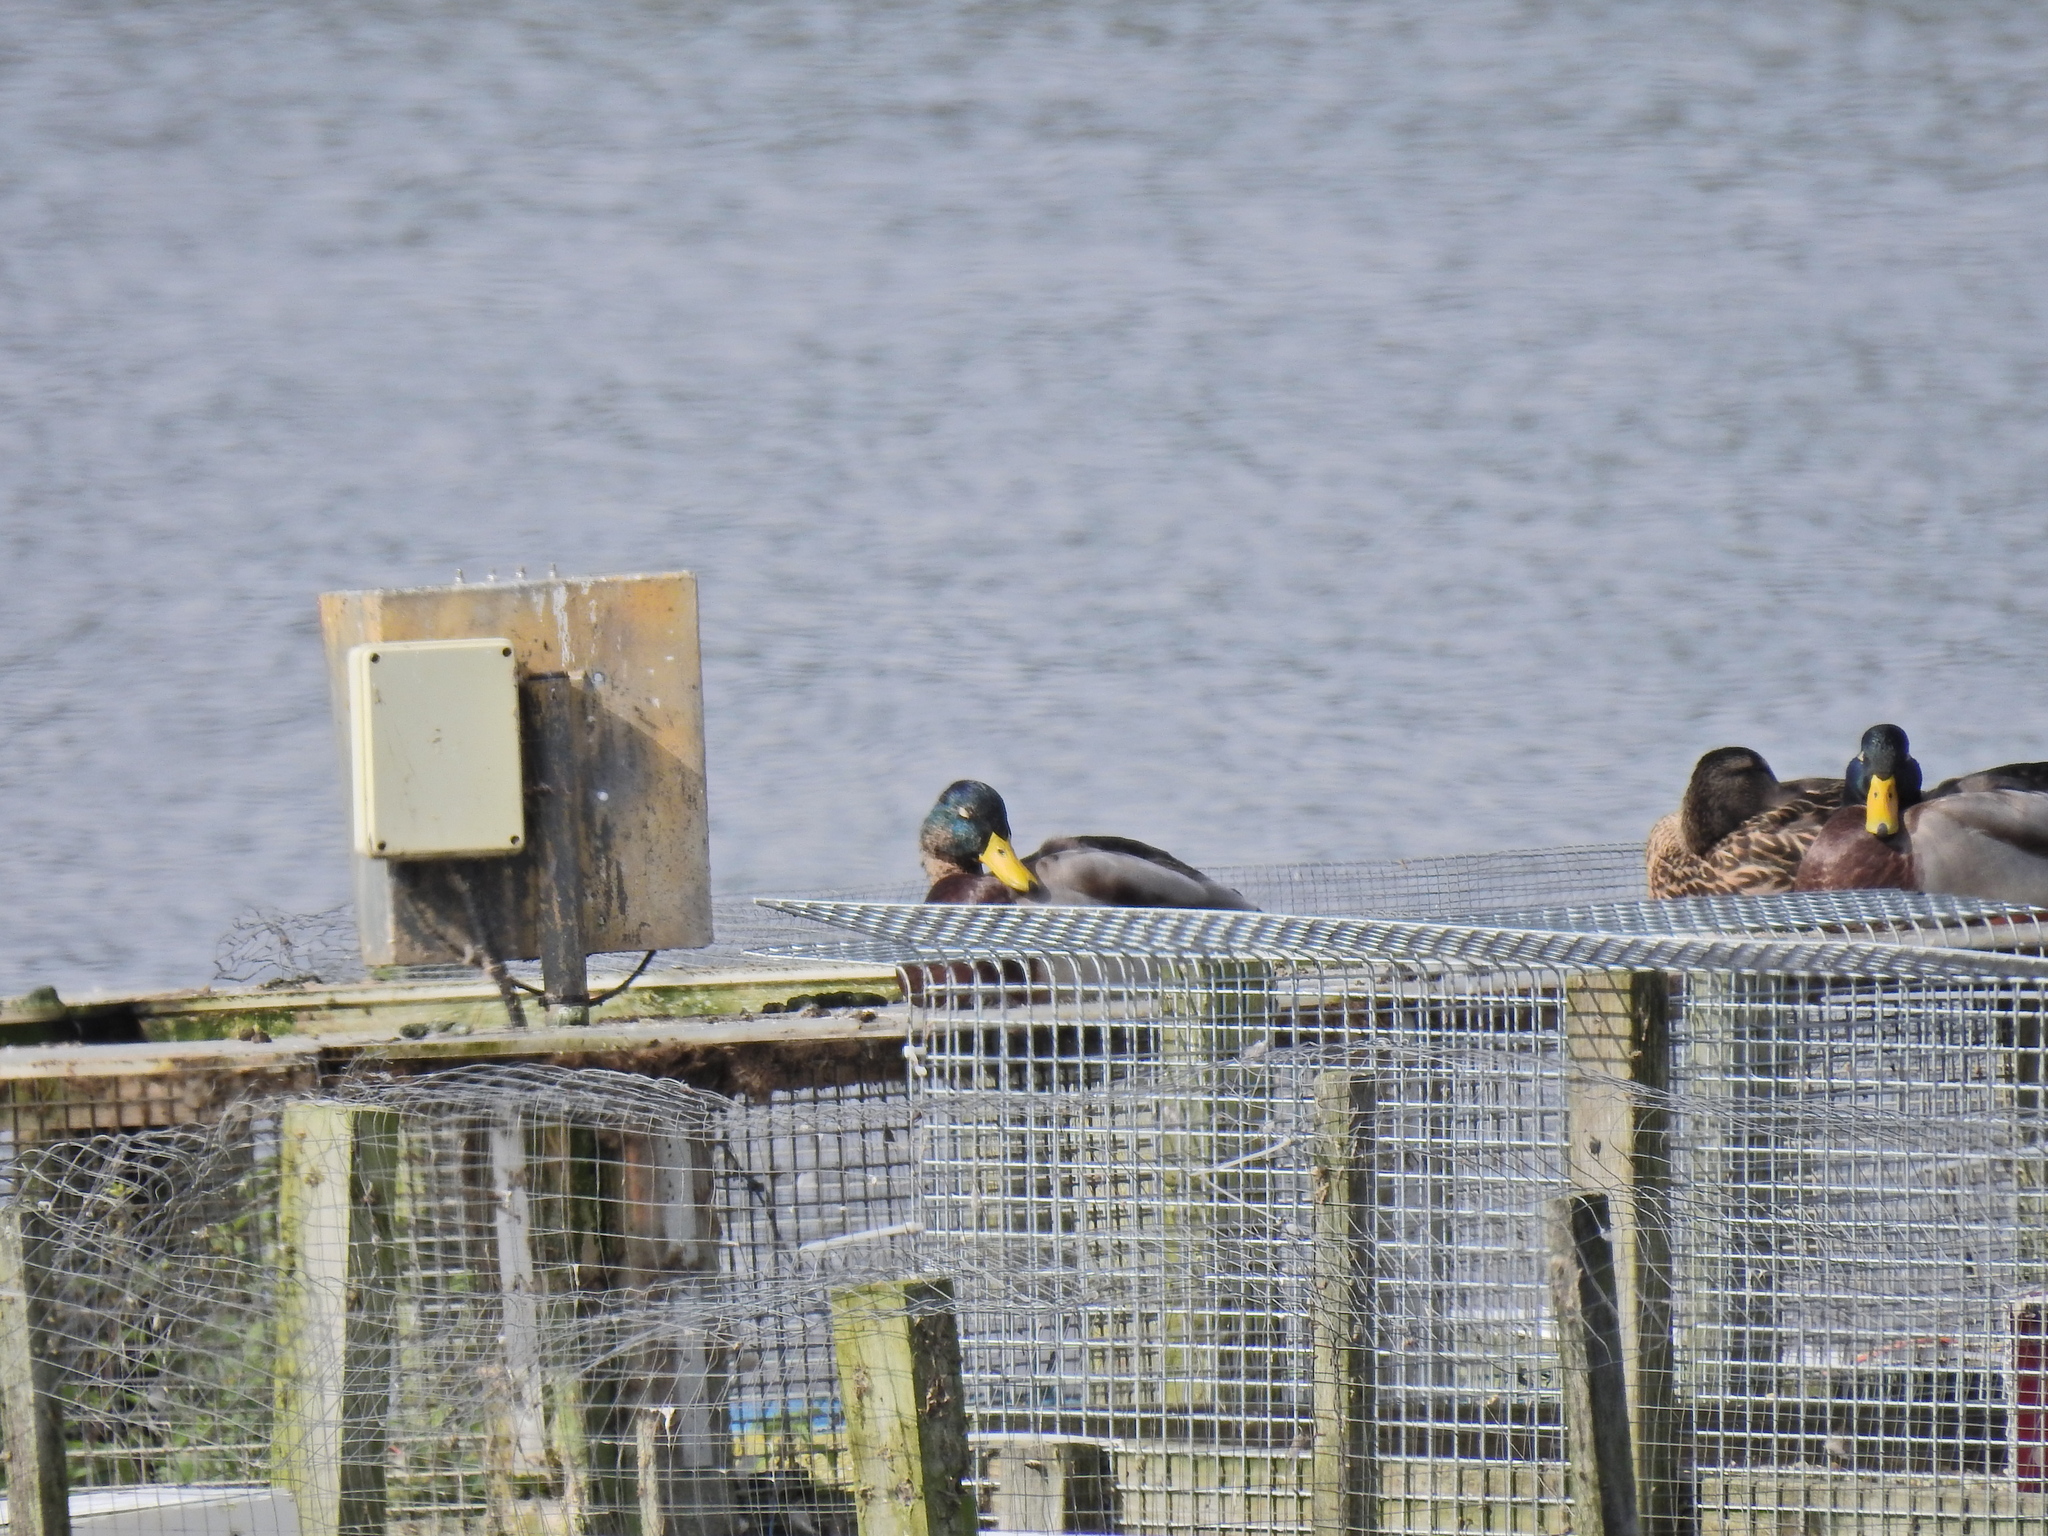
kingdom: Animalia
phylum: Chordata
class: Aves
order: Anseriformes
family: Anatidae
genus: Anas
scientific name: Anas platyrhynchos
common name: Mallard
